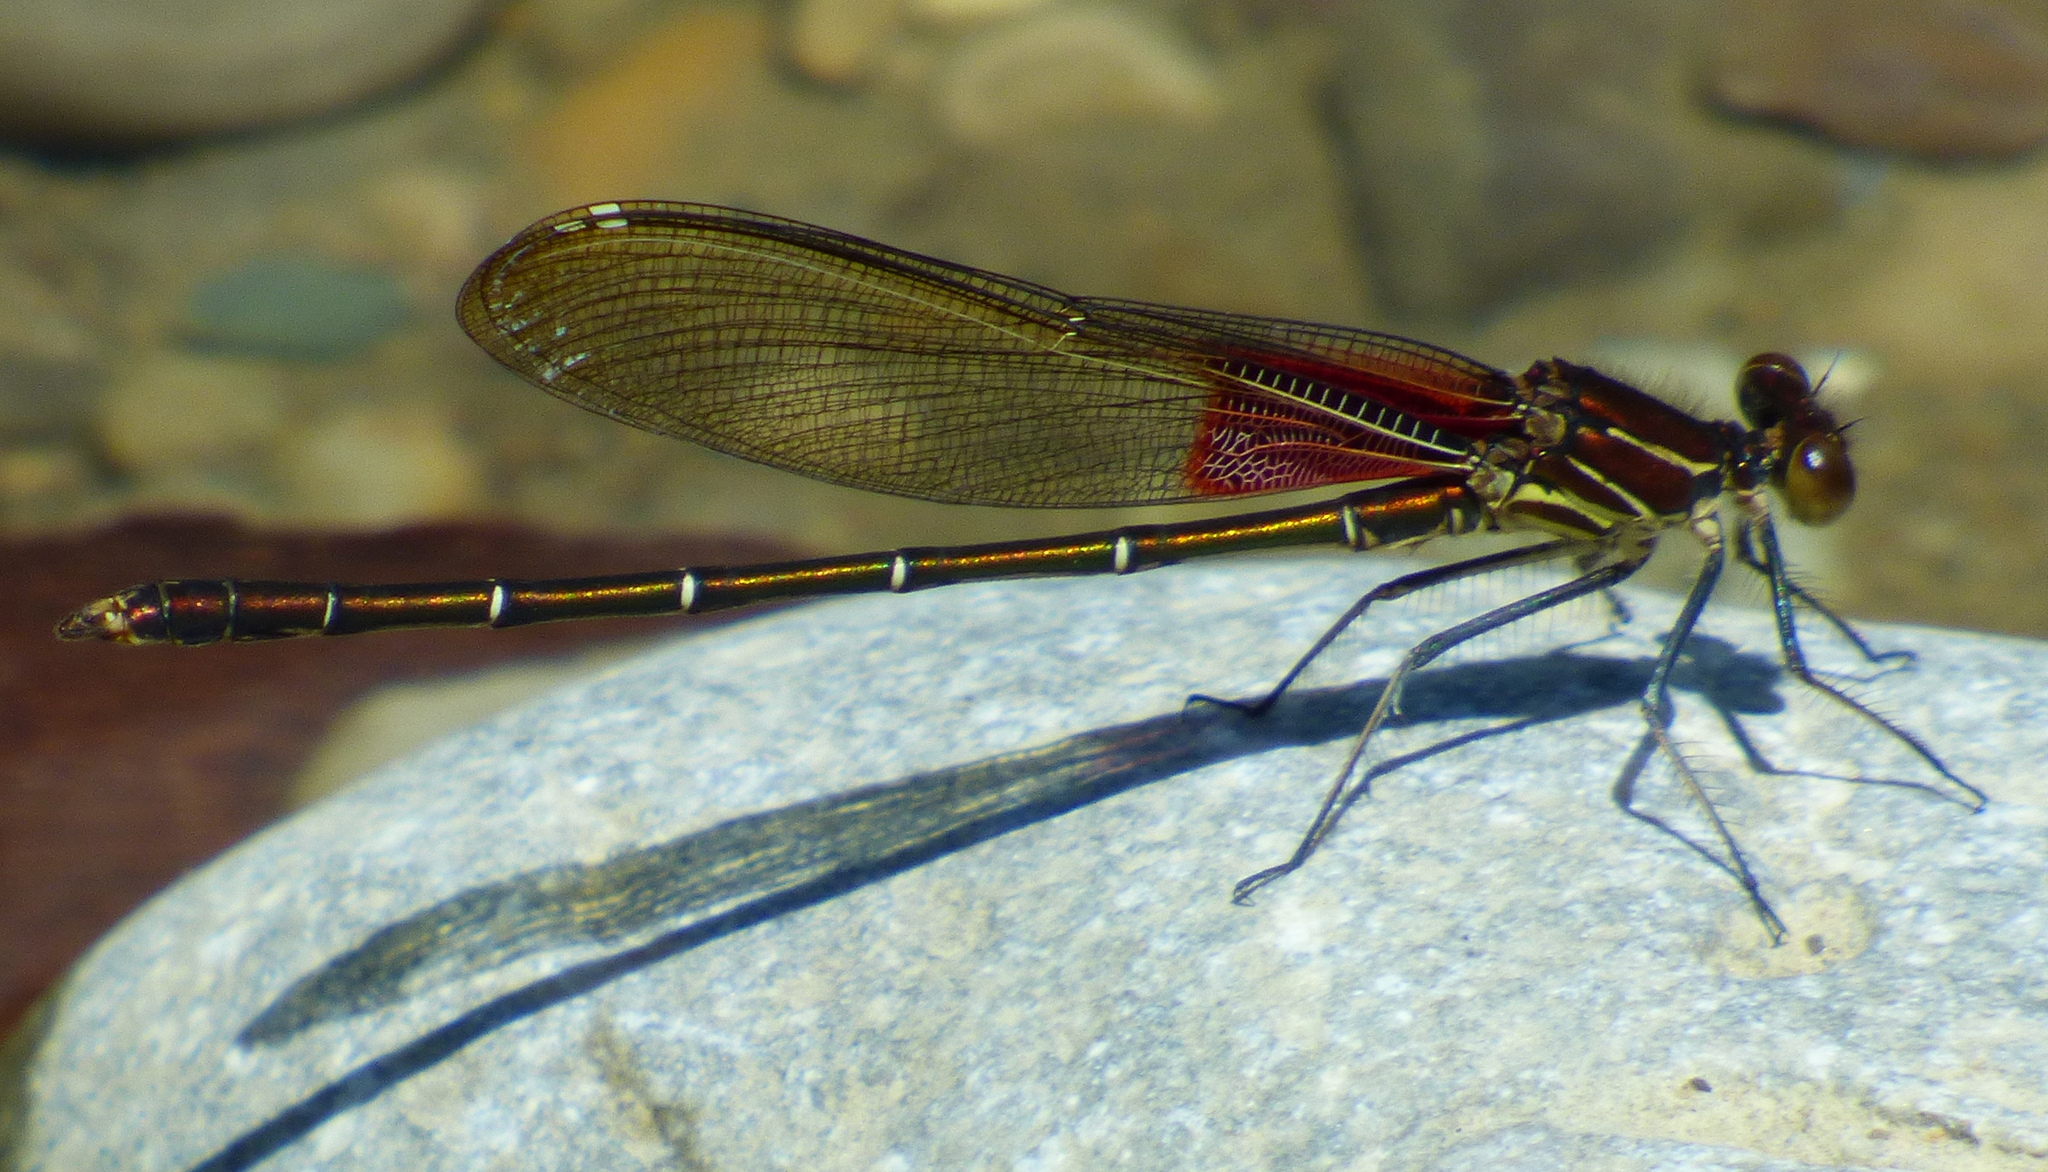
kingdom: Animalia
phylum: Arthropoda
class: Insecta
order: Odonata
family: Calopterygidae
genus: Hetaerina
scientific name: Hetaerina americana
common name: American rubyspot
